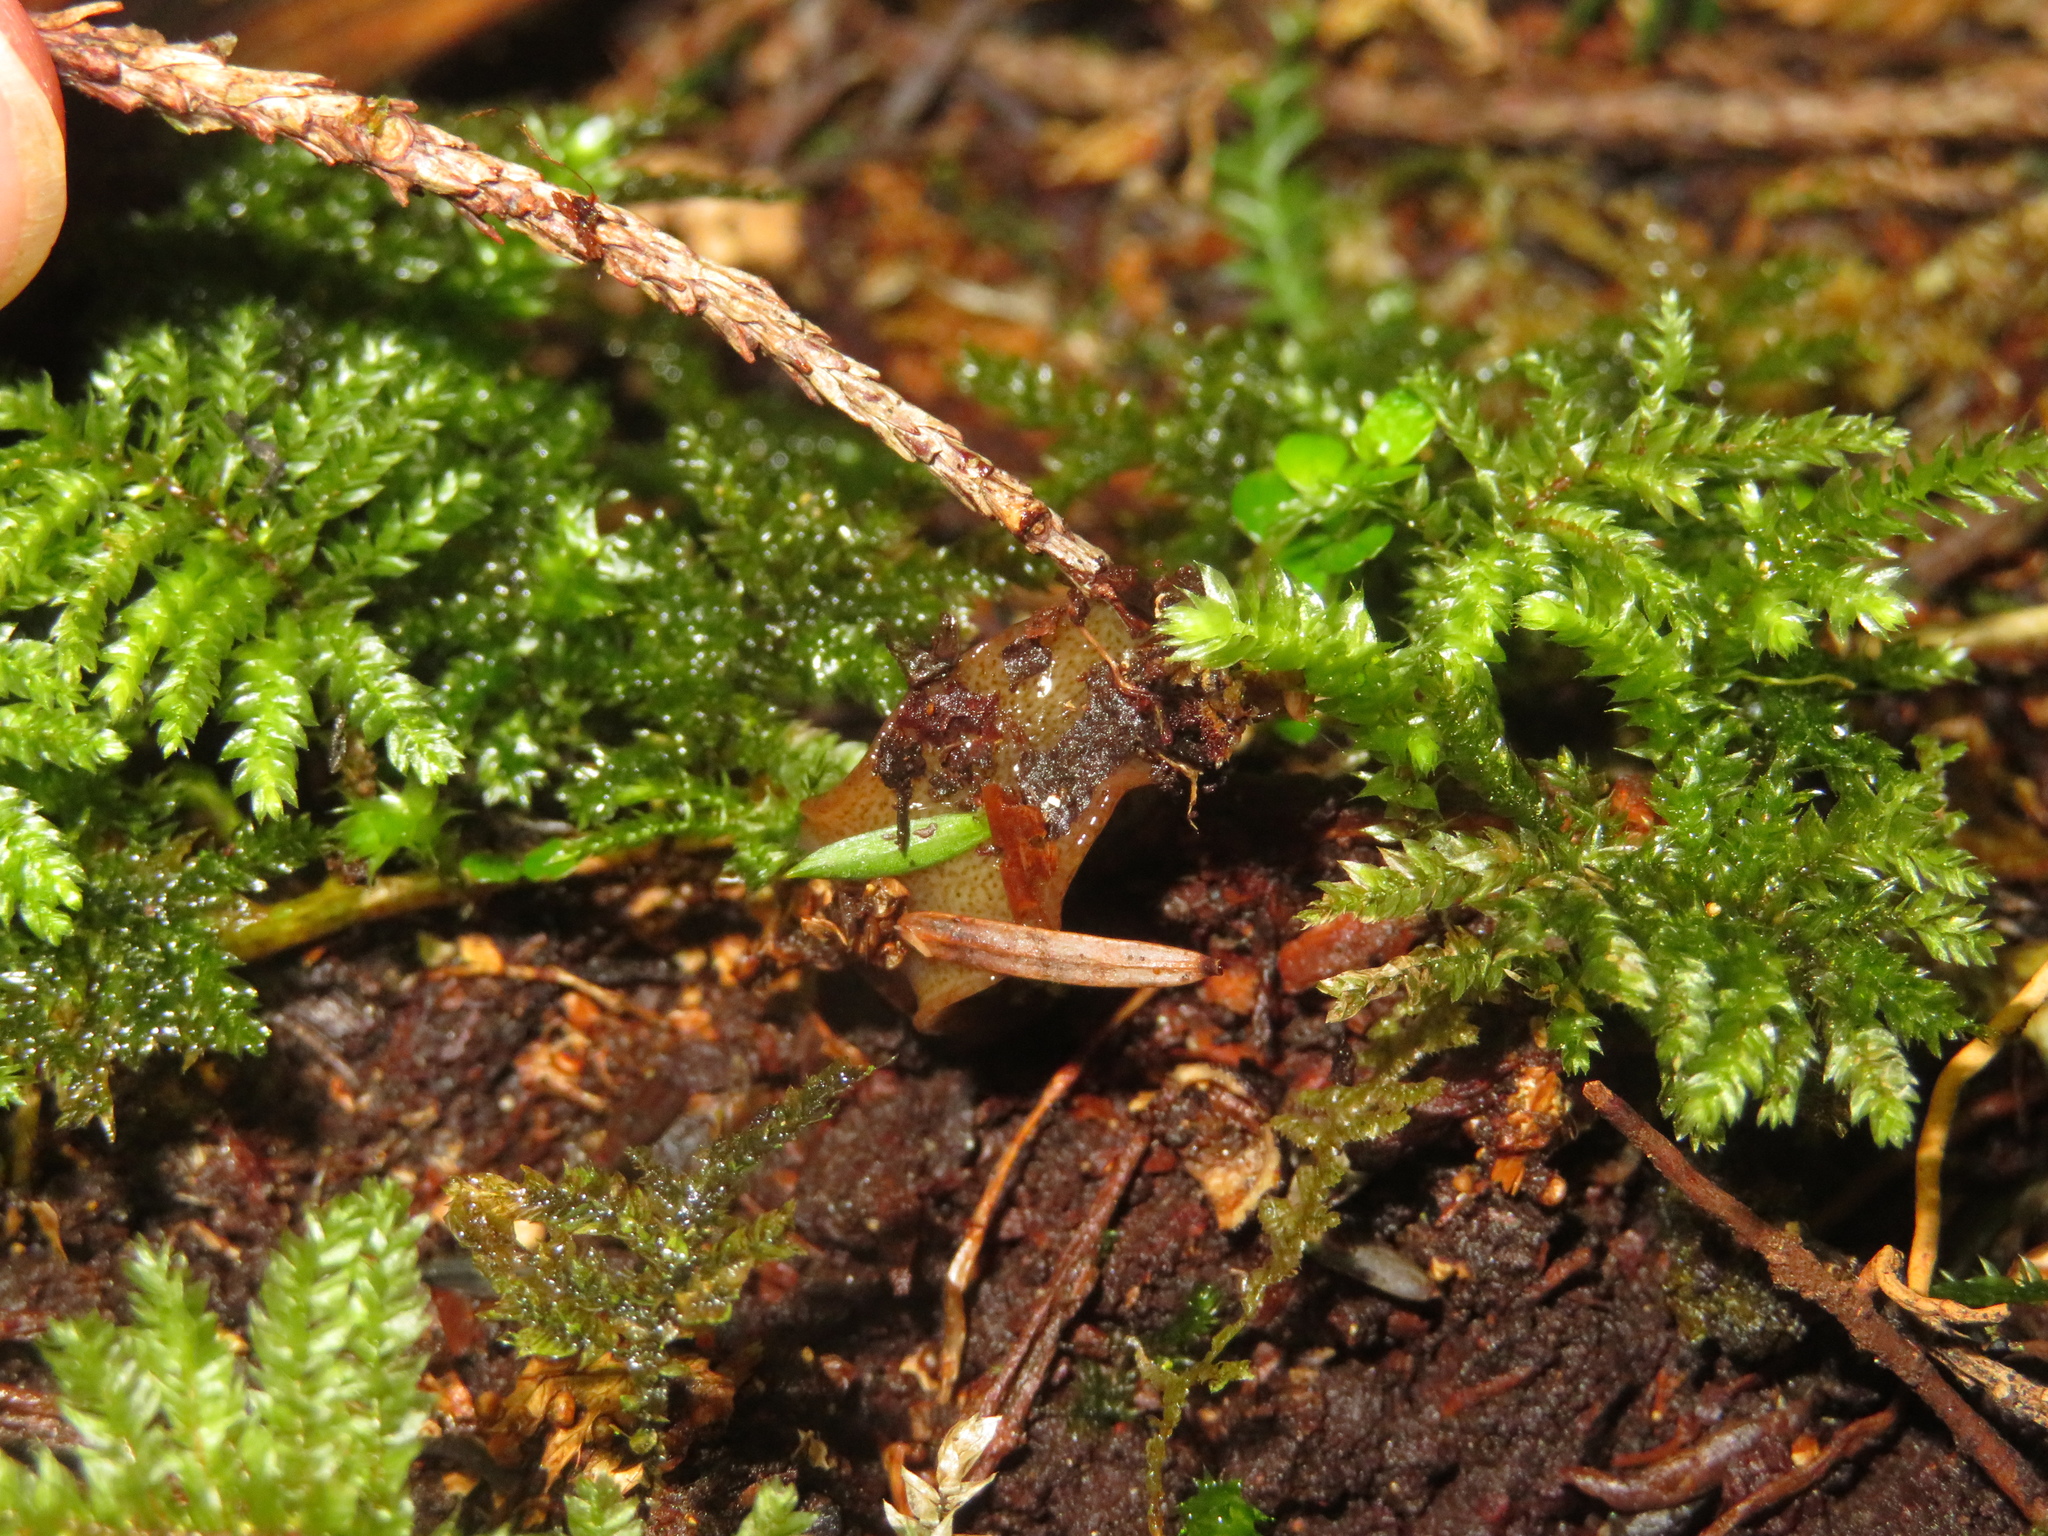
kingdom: Animalia
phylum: Platyhelminthes
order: Tricladida
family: Geoplanidae
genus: Newzealandia
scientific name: Newzealandia graffii
